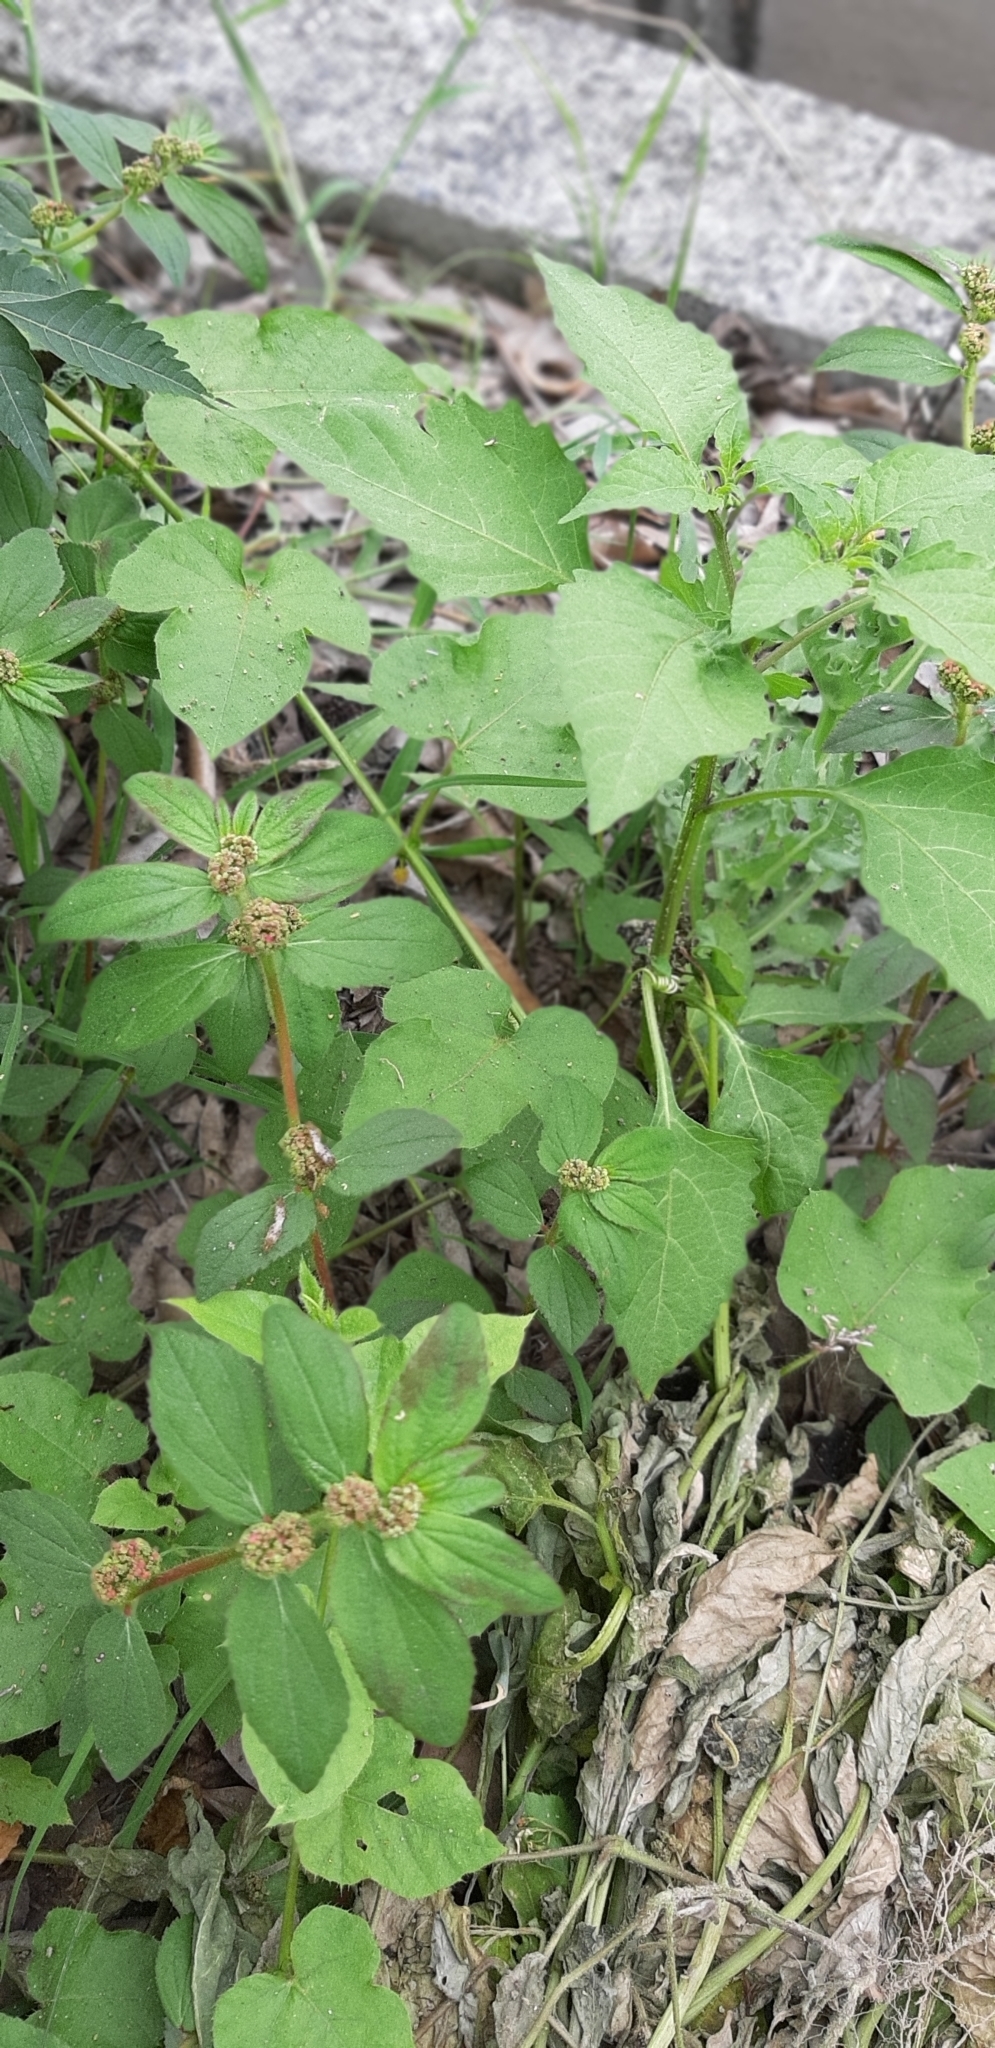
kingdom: Plantae
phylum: Tracheophyta
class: Magnoliopsida
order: Malpighiales
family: Euphorbiaceae
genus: Euphorbia
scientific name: Euphorbia hirta
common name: Pillpod sandmat
